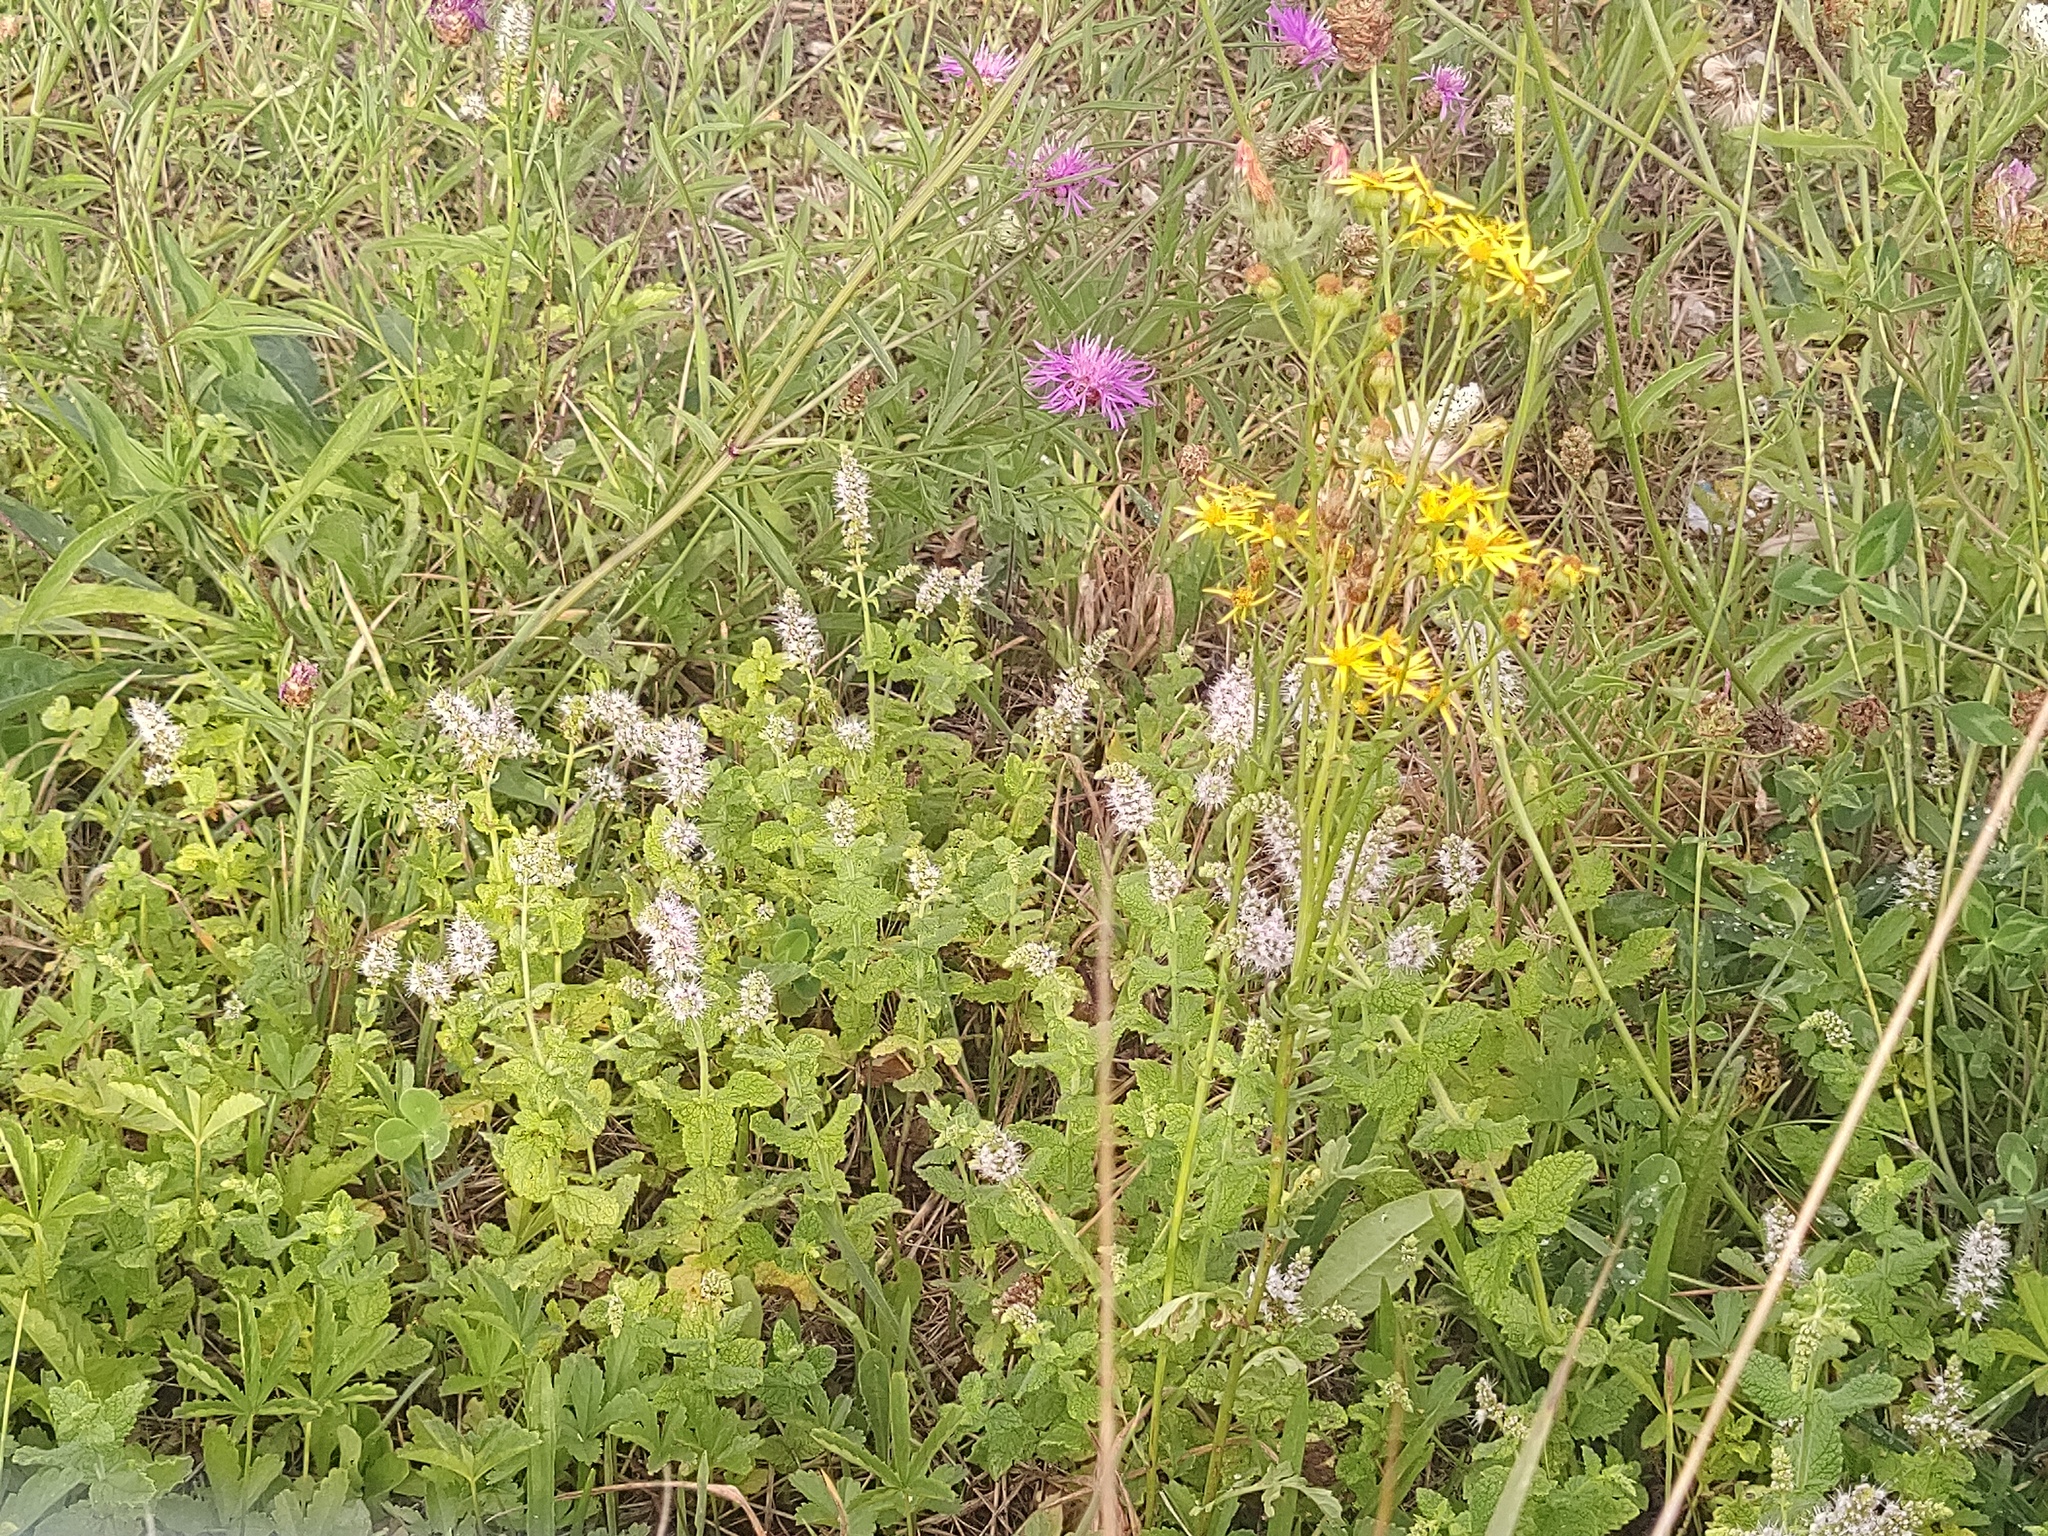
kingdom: Plantae
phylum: Tracheophyta
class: Magnoliopsida
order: Lamiales
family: Lamiaceae
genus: Mentha
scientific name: Mentha suaveolens
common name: Apple mint
